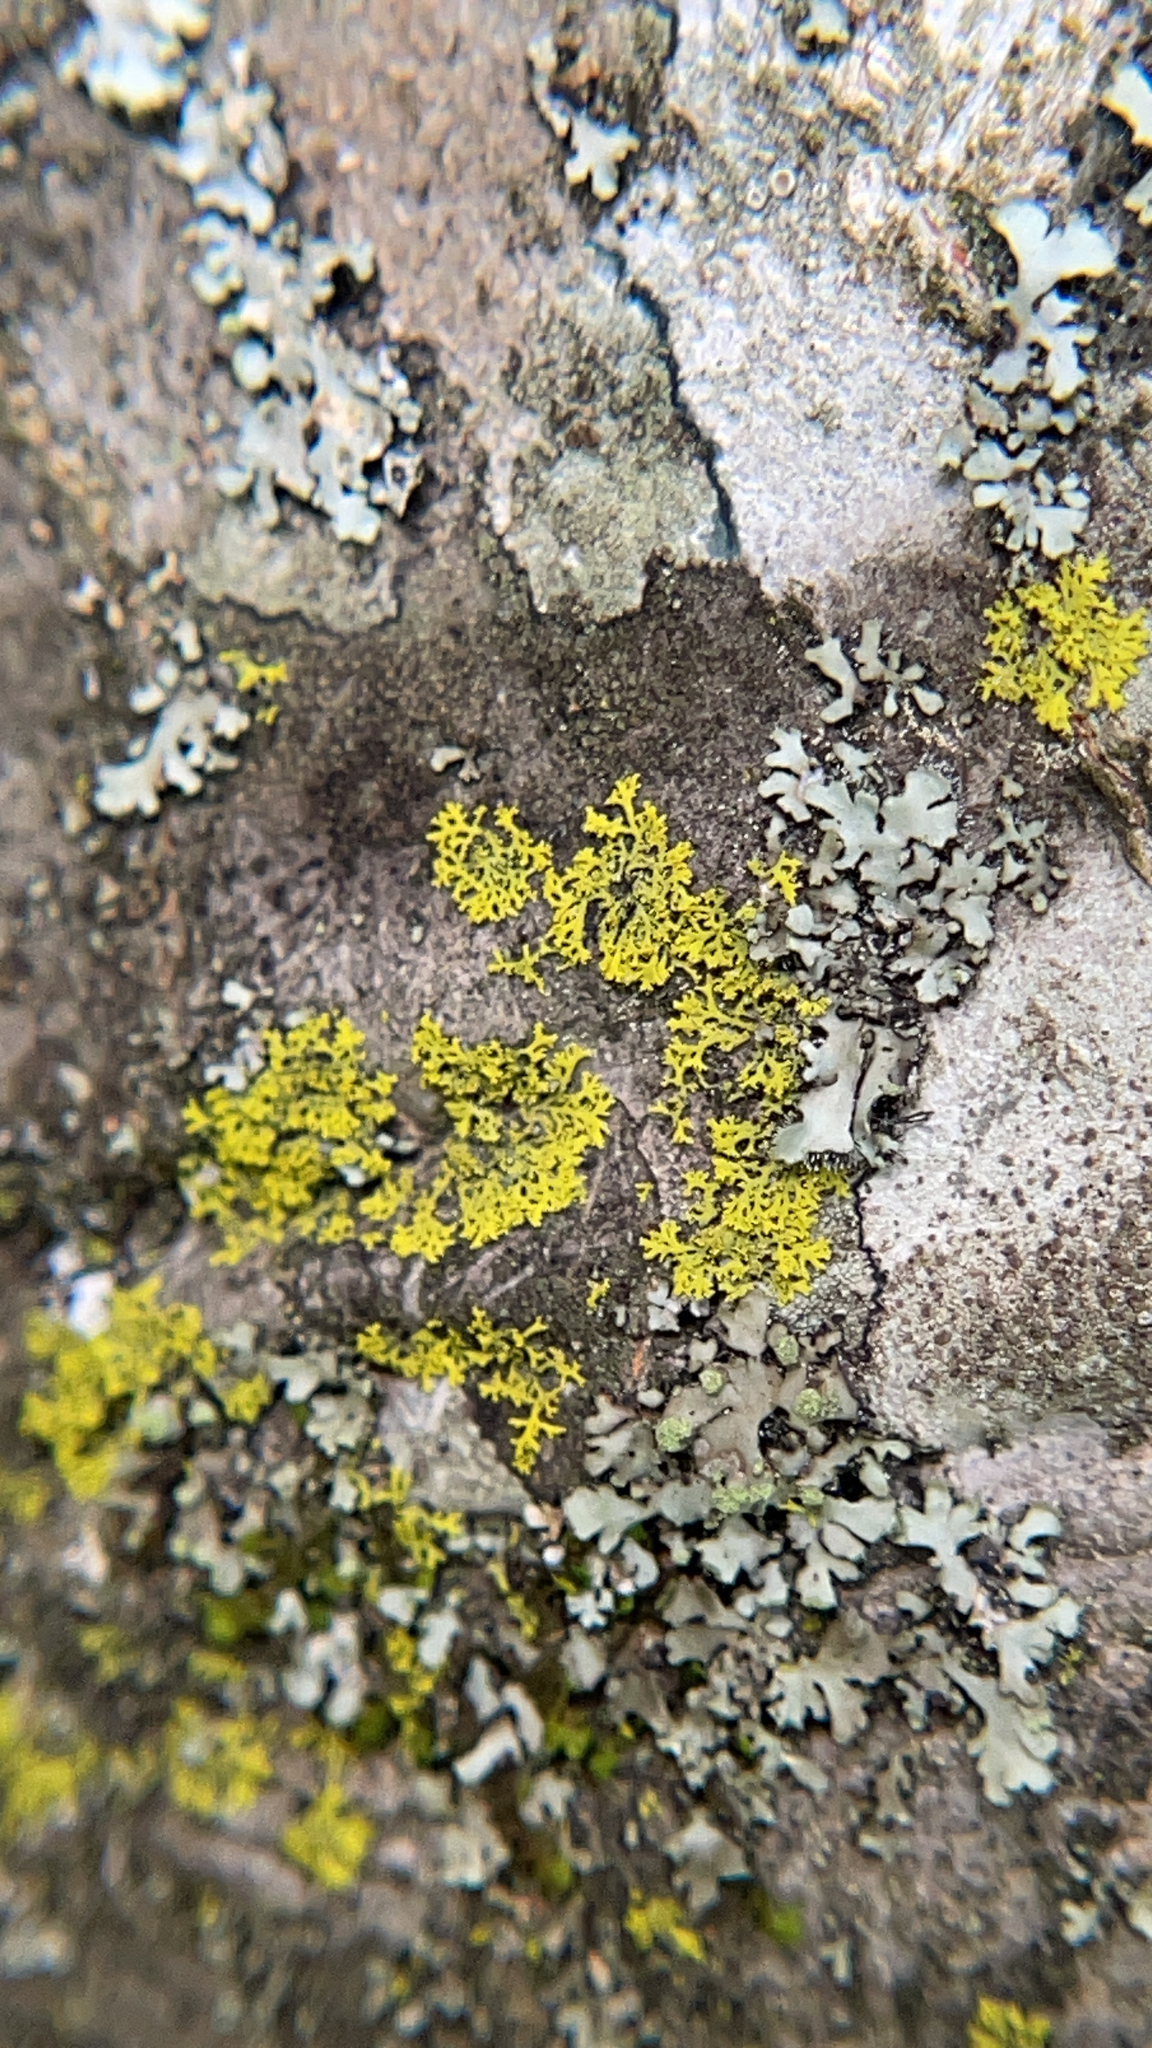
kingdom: Fungi
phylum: Ascomycota
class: Candelariomycetes
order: Candelariales
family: Candelariaceae
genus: Candelaria
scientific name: Candelaria concolor
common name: Candleflame lichen
